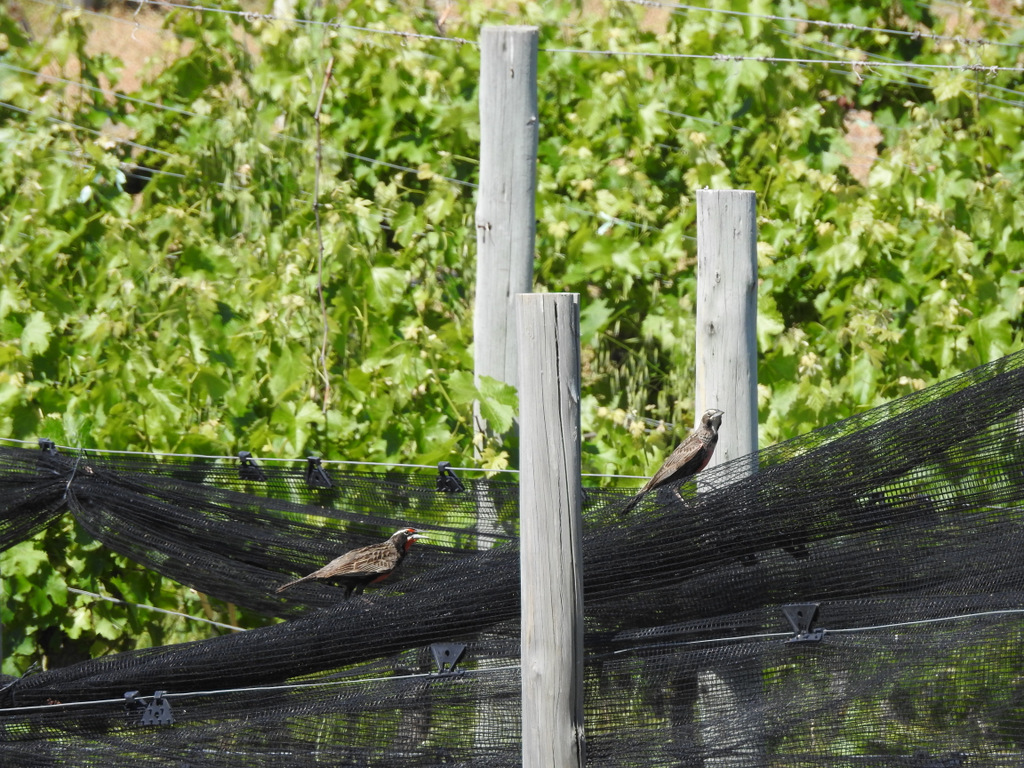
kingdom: Animalia
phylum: Chordata
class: Aves
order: Passeriformes
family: Icteridae
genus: Sturnella
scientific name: Sturnella loyca
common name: Long-tailed meadowlark
